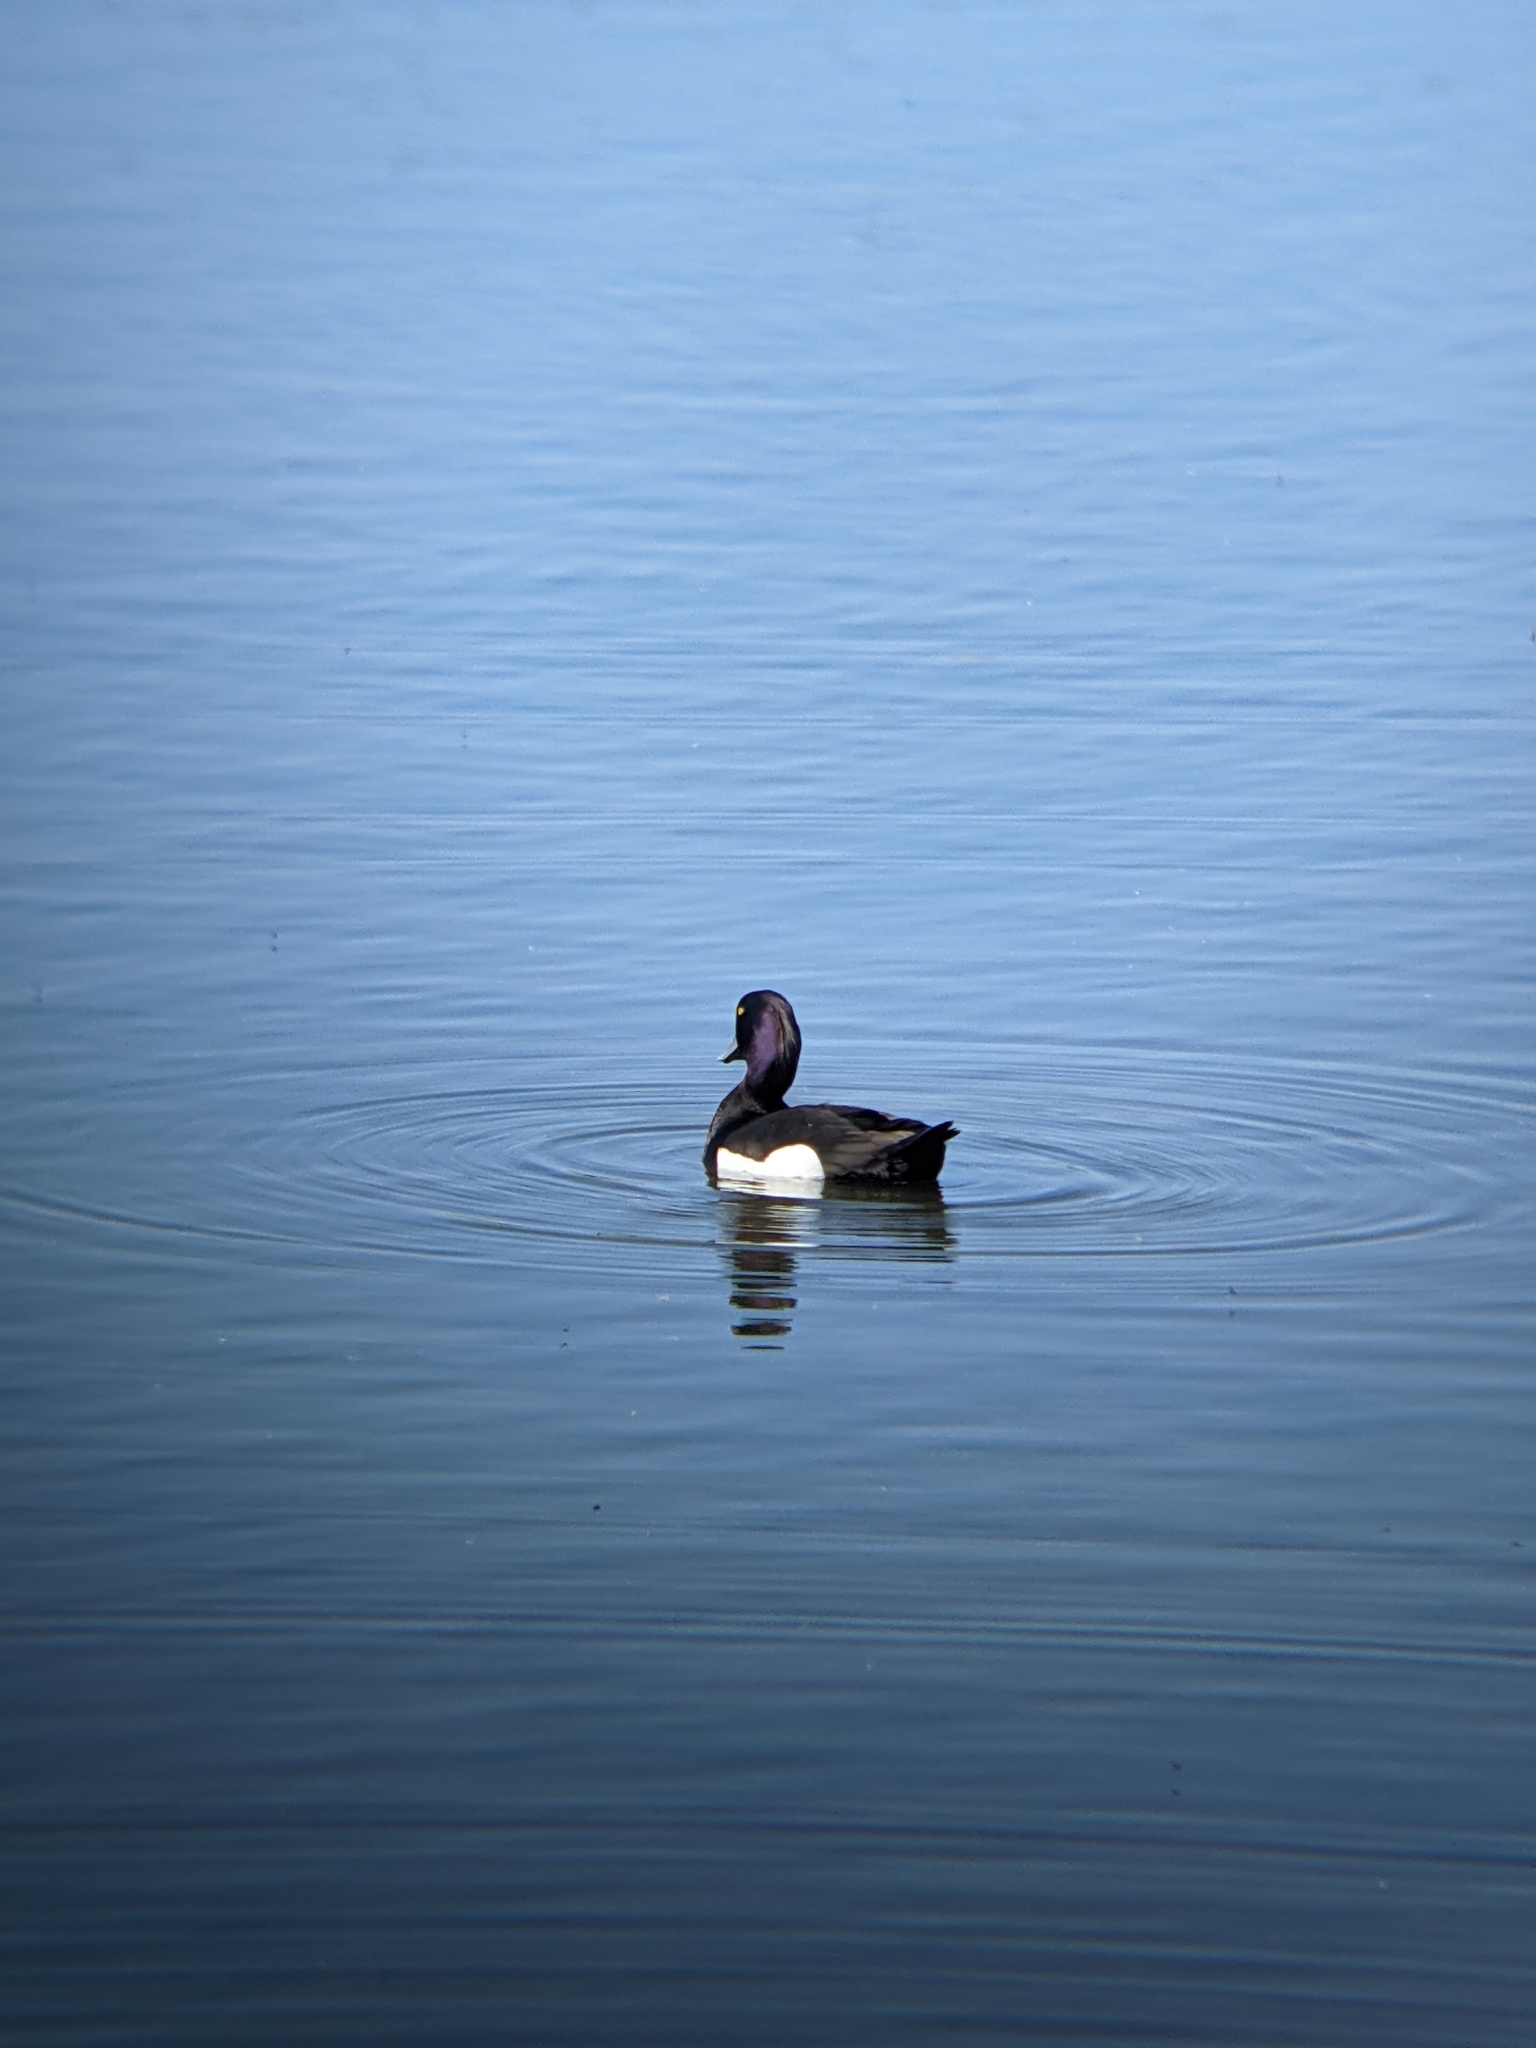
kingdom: Animalia
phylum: Chordata
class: Aves
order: Anseriformes
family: Anatidae
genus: Aythya
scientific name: Aythya fuligula
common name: Tufted duck
